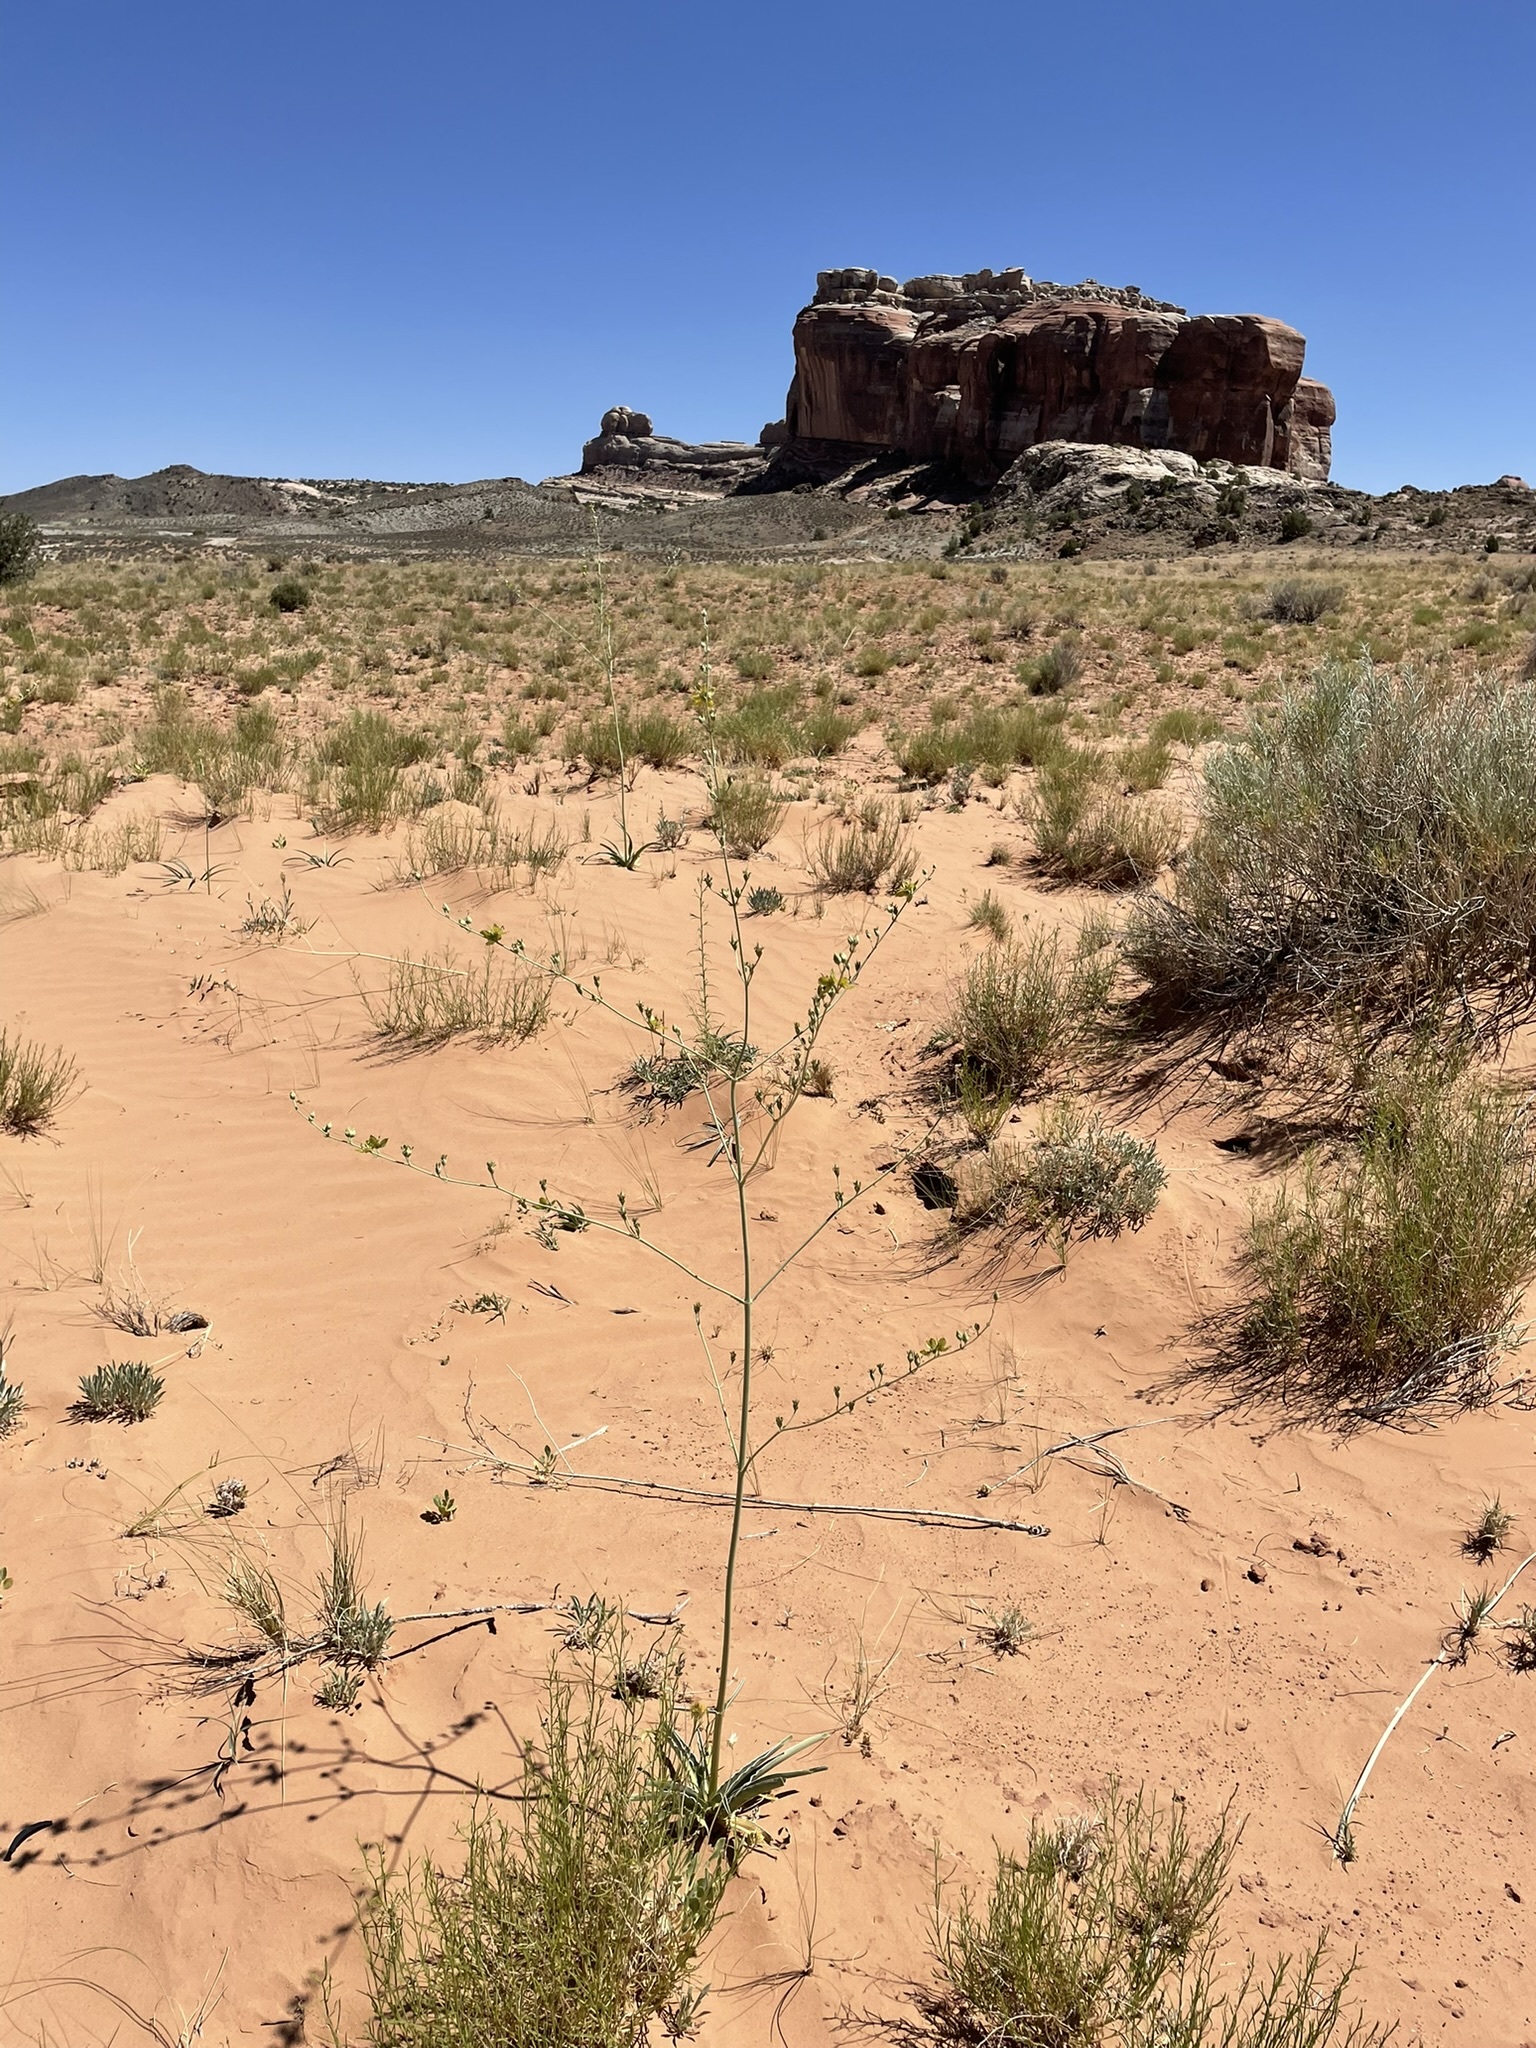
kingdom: Plantae
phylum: Tracheophyta
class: Magnoliopsida
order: Gentianales
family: Gentianaceae
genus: Frasera
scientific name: Frasera paniculata
